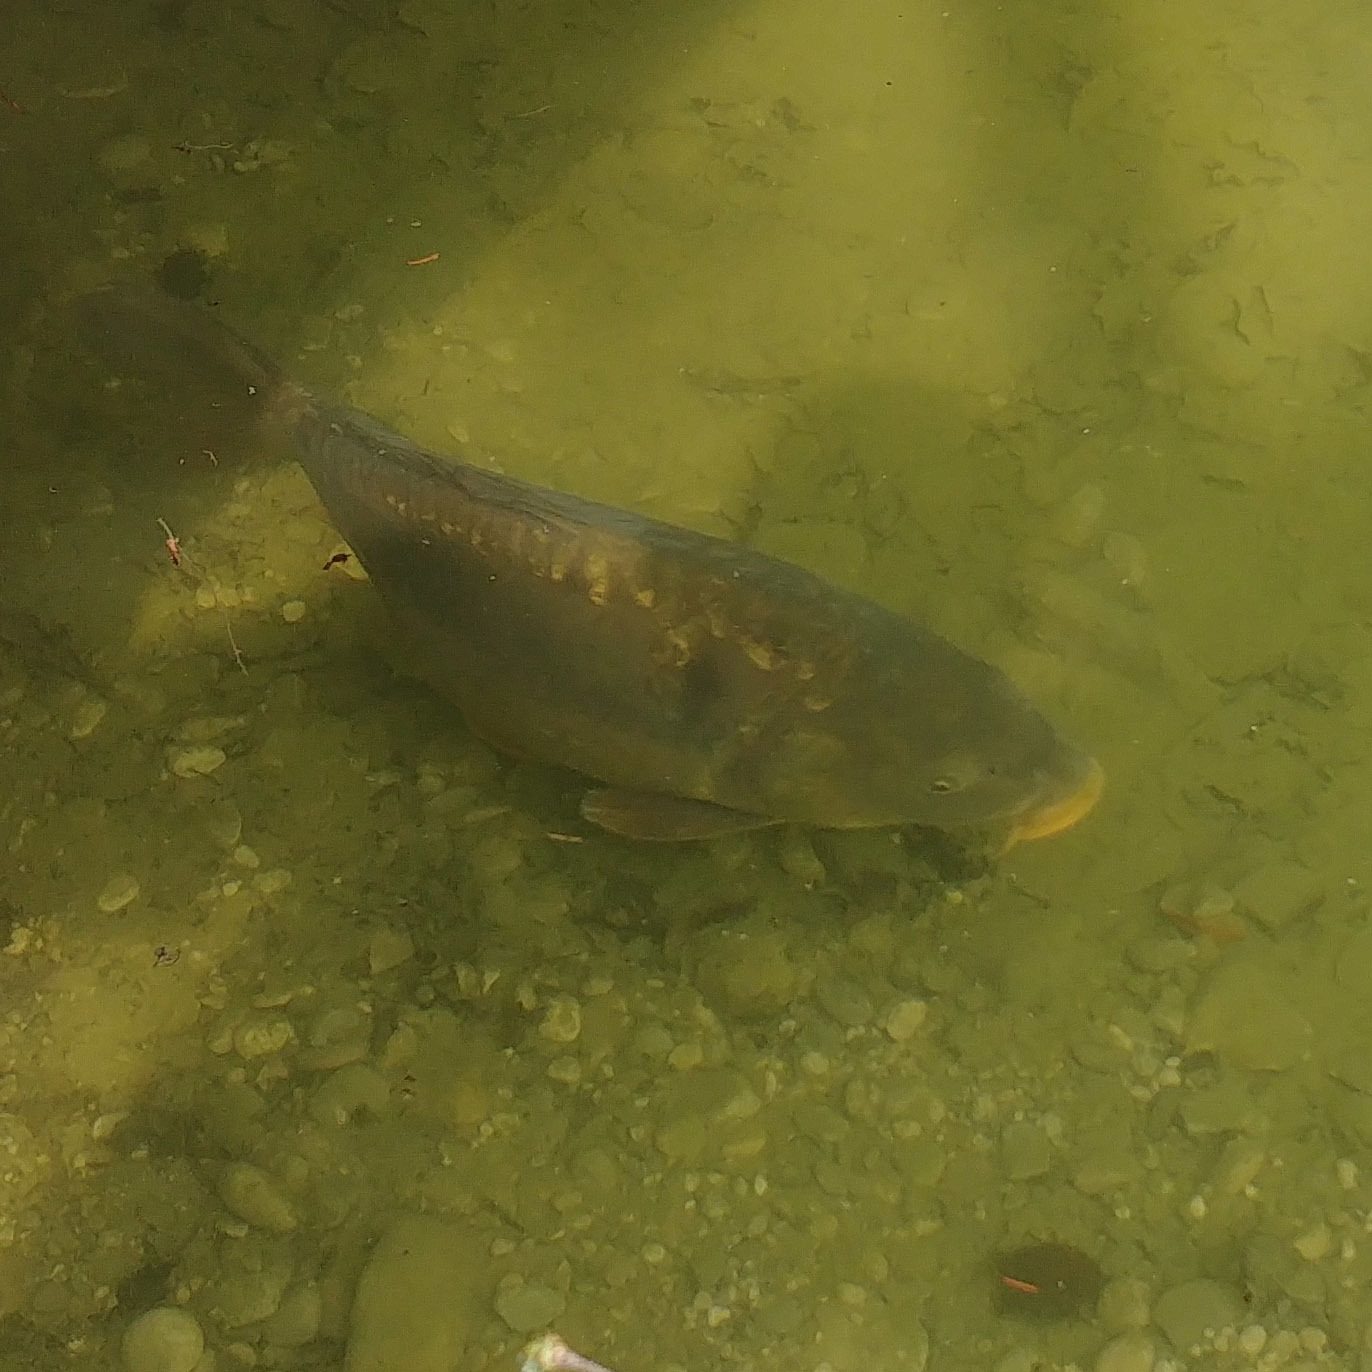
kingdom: Animalia
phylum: Chordata
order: Cypriniformes
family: Cyprinidae
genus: Cyprinus
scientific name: Cyprinus carpio
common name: Common carp
